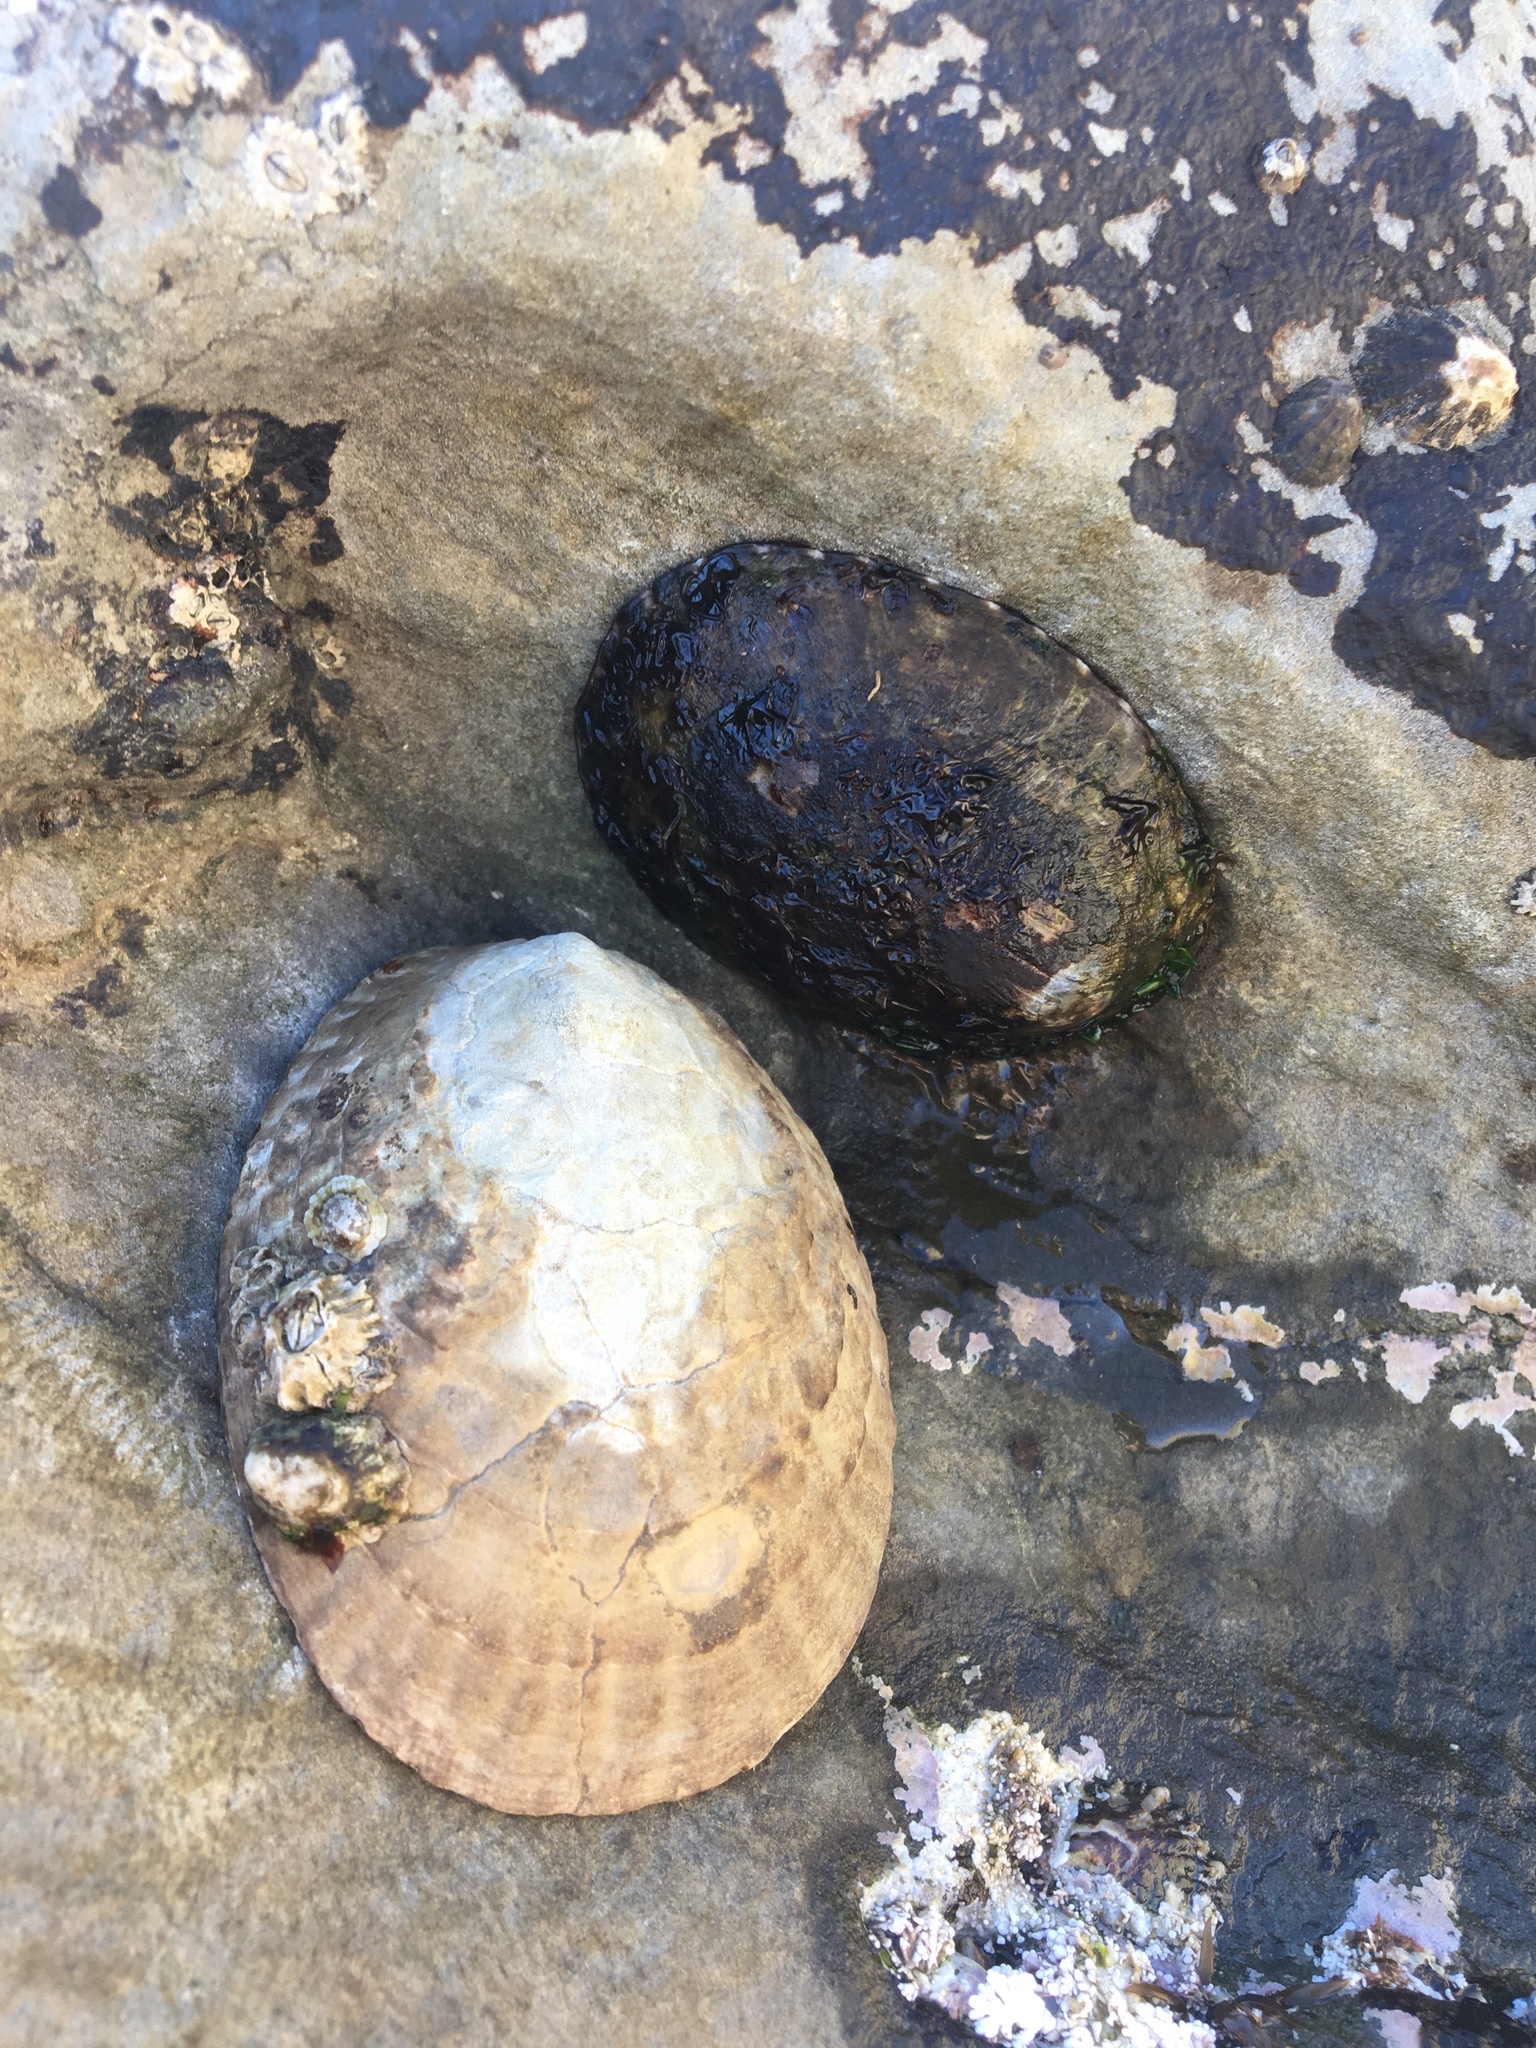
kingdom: Animalia
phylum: Mollusca
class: Gastropoda
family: Lottiidae
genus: Lottia
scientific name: Lottia gigantea
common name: Owl limpet
